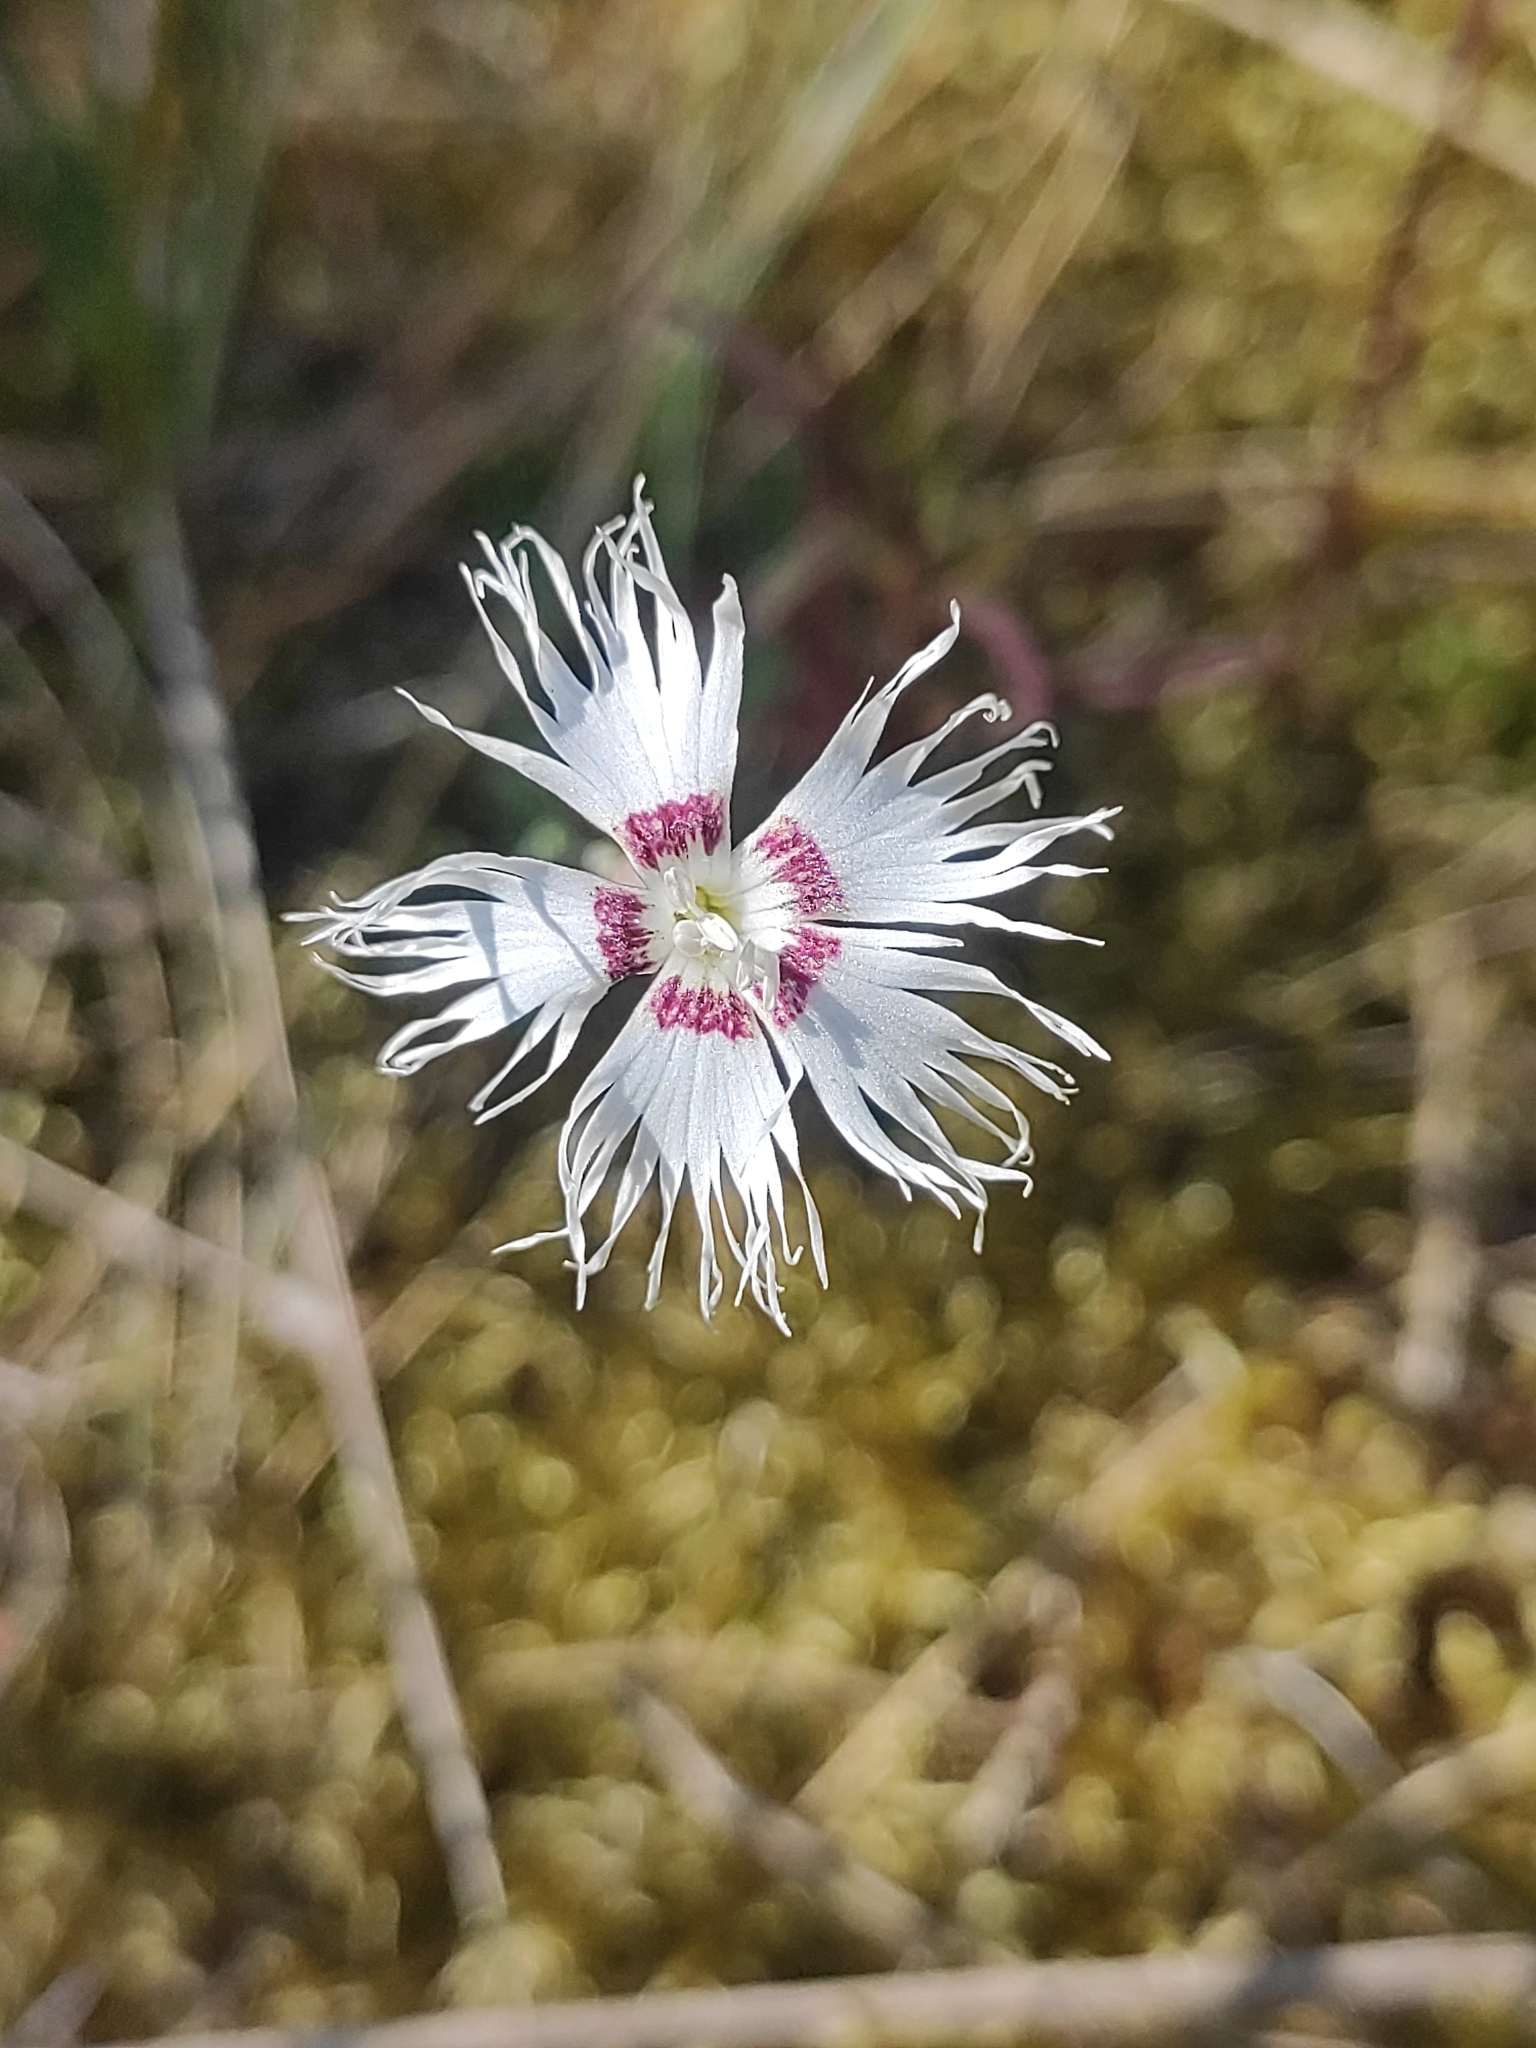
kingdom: Plantae
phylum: Tracheophyta
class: Magnoliopsida
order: Caryophyllales
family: Caryophyllaceae
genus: Dianthus
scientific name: Dianthus arenarius
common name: Stone pink
